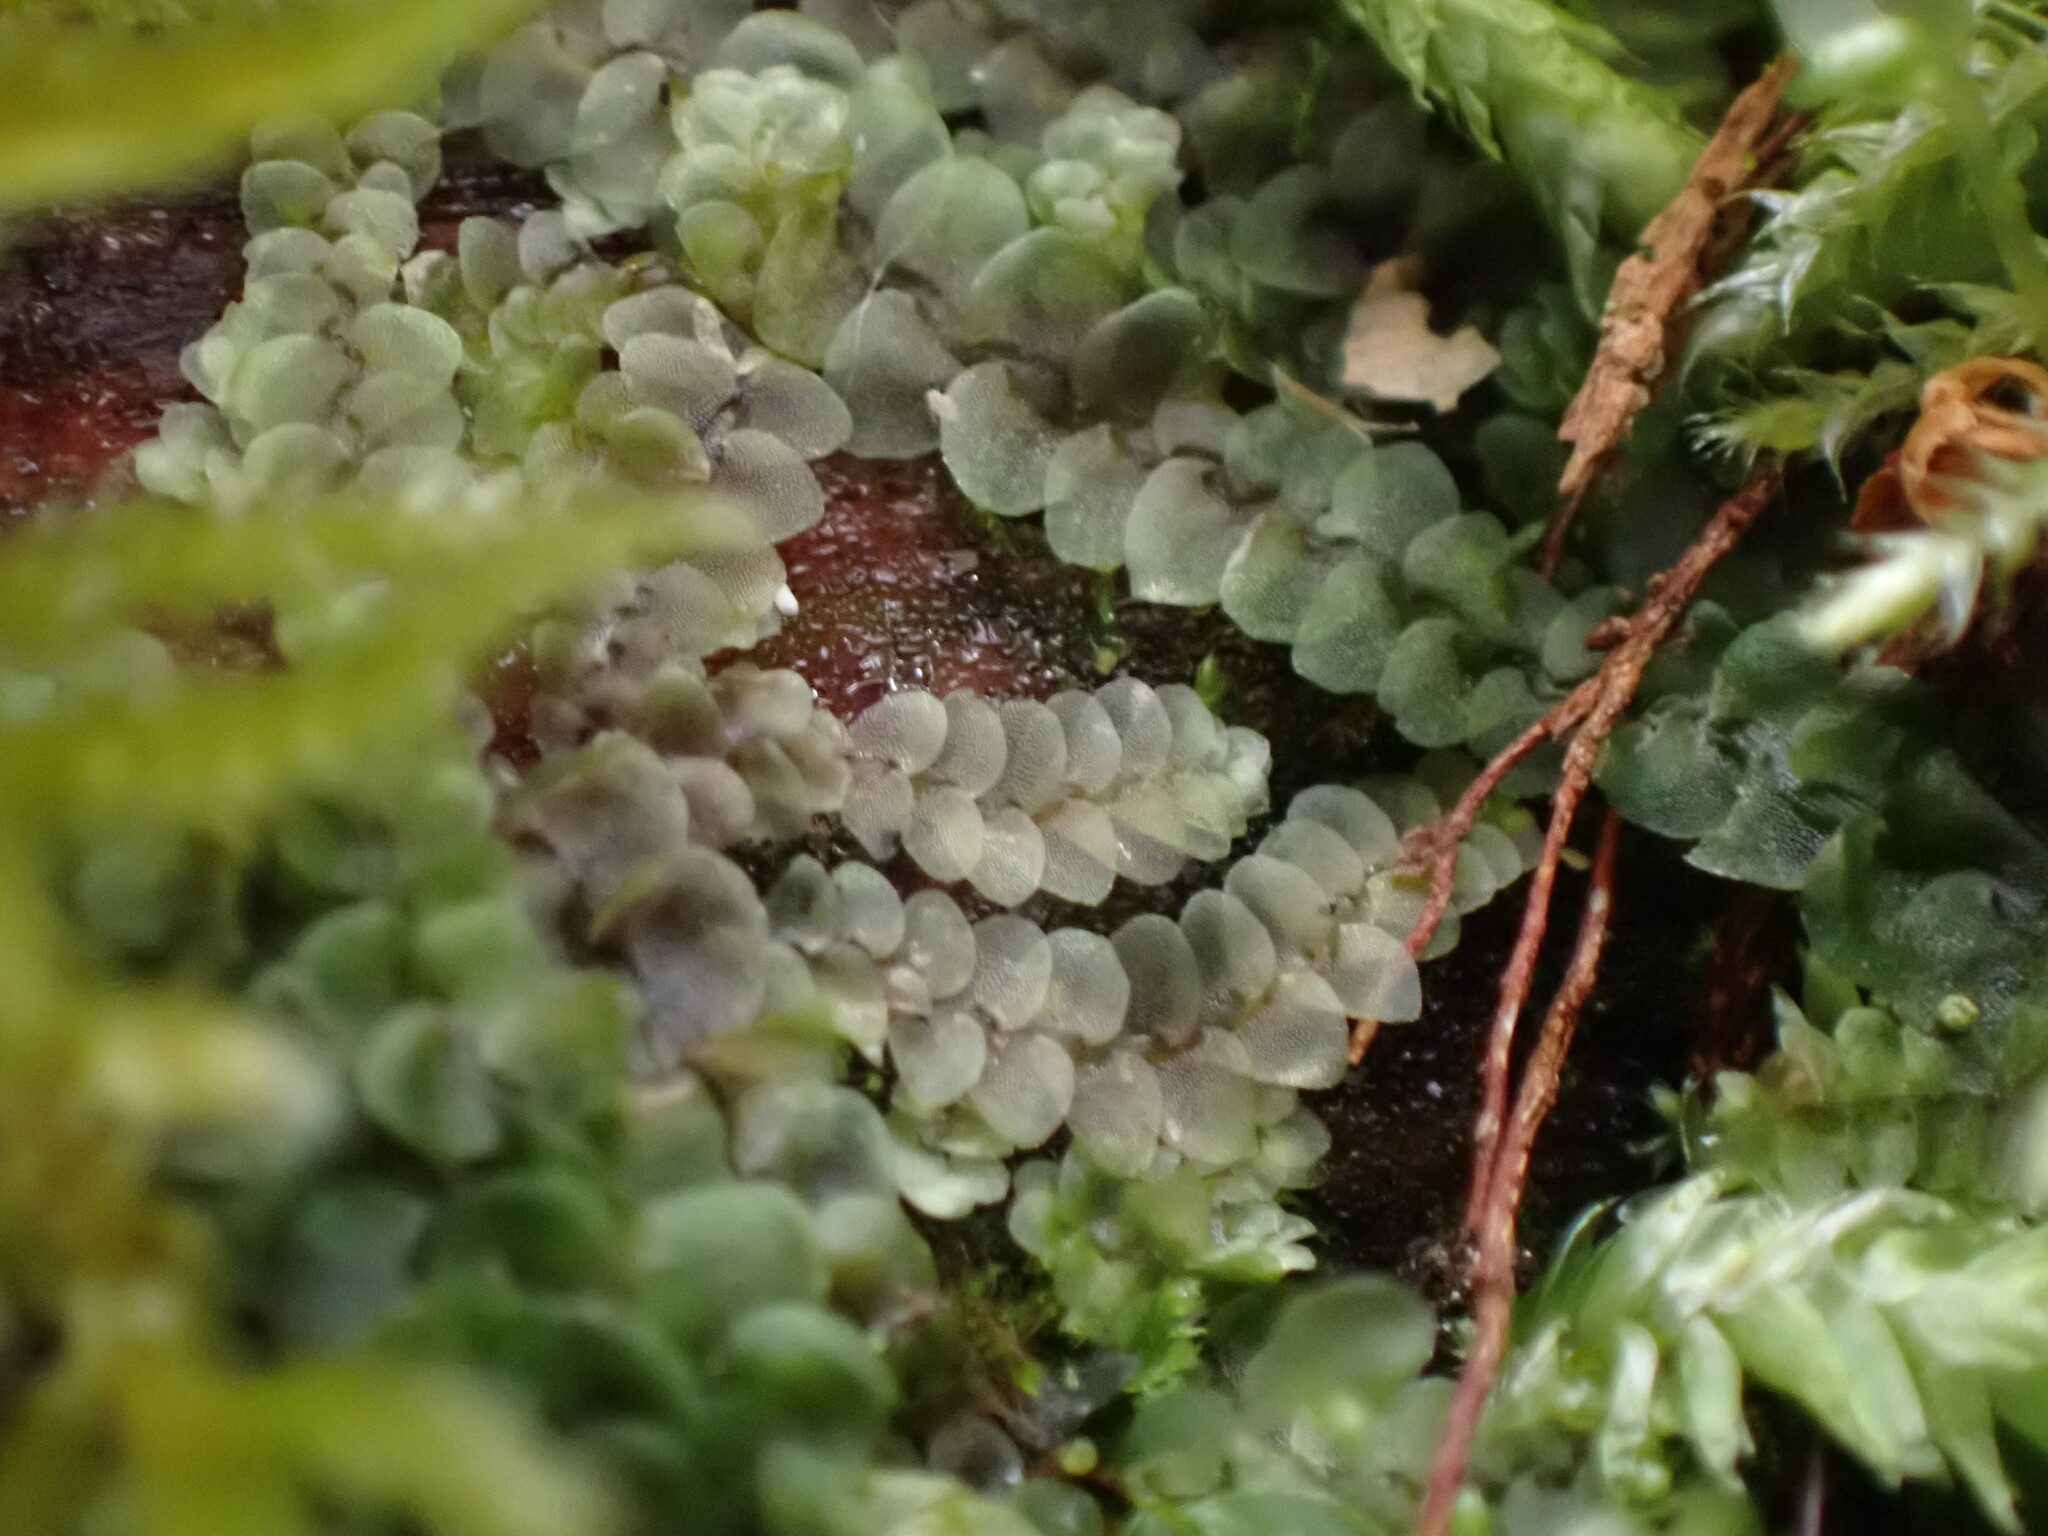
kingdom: Plantae
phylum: Marchantiophyta
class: Jungermanniopsida
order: Jungermanniales
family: Calypogeiaceae
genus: Calypogeia
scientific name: Calypogeia azurea
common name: Blue pouchwort
